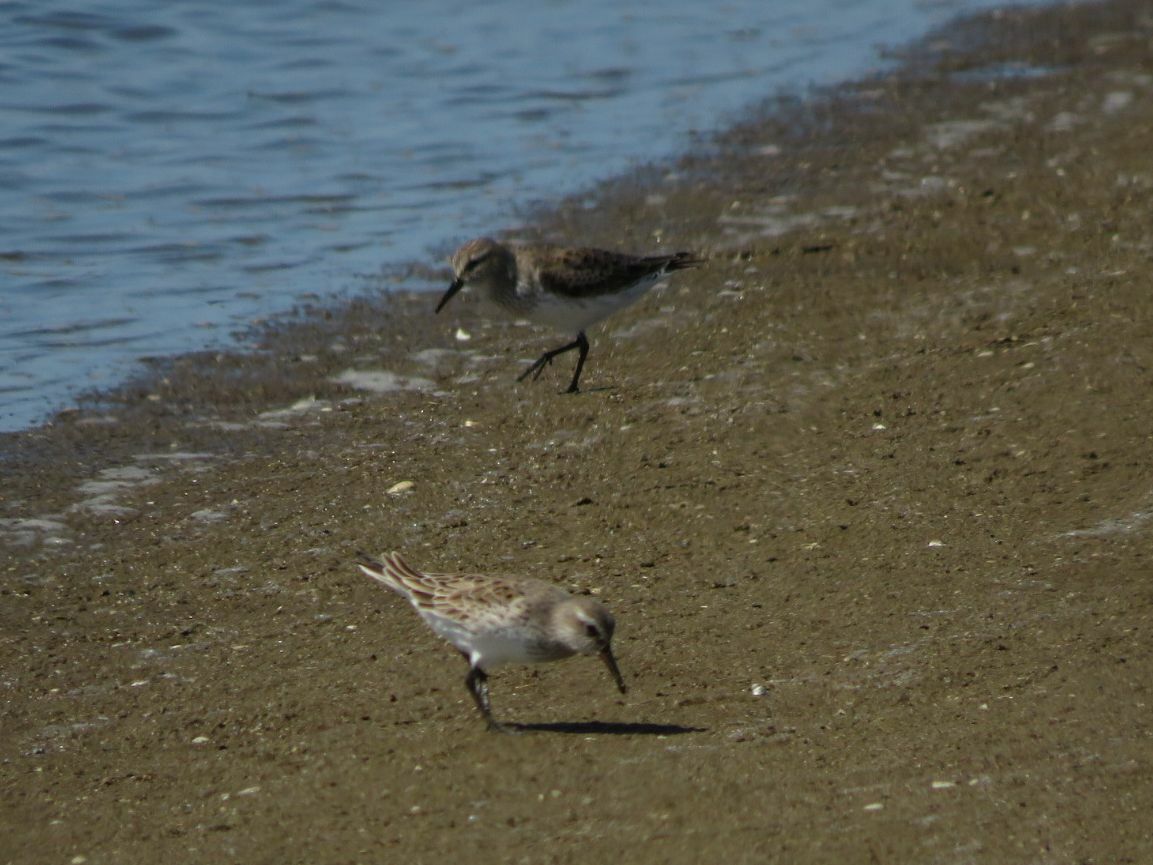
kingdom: Animalia
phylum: Chordata
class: Aves
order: Charadriiformes
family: Scolopacidae
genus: Calidris
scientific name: Calidris fuscicollis
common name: White-rumped sandpiper
